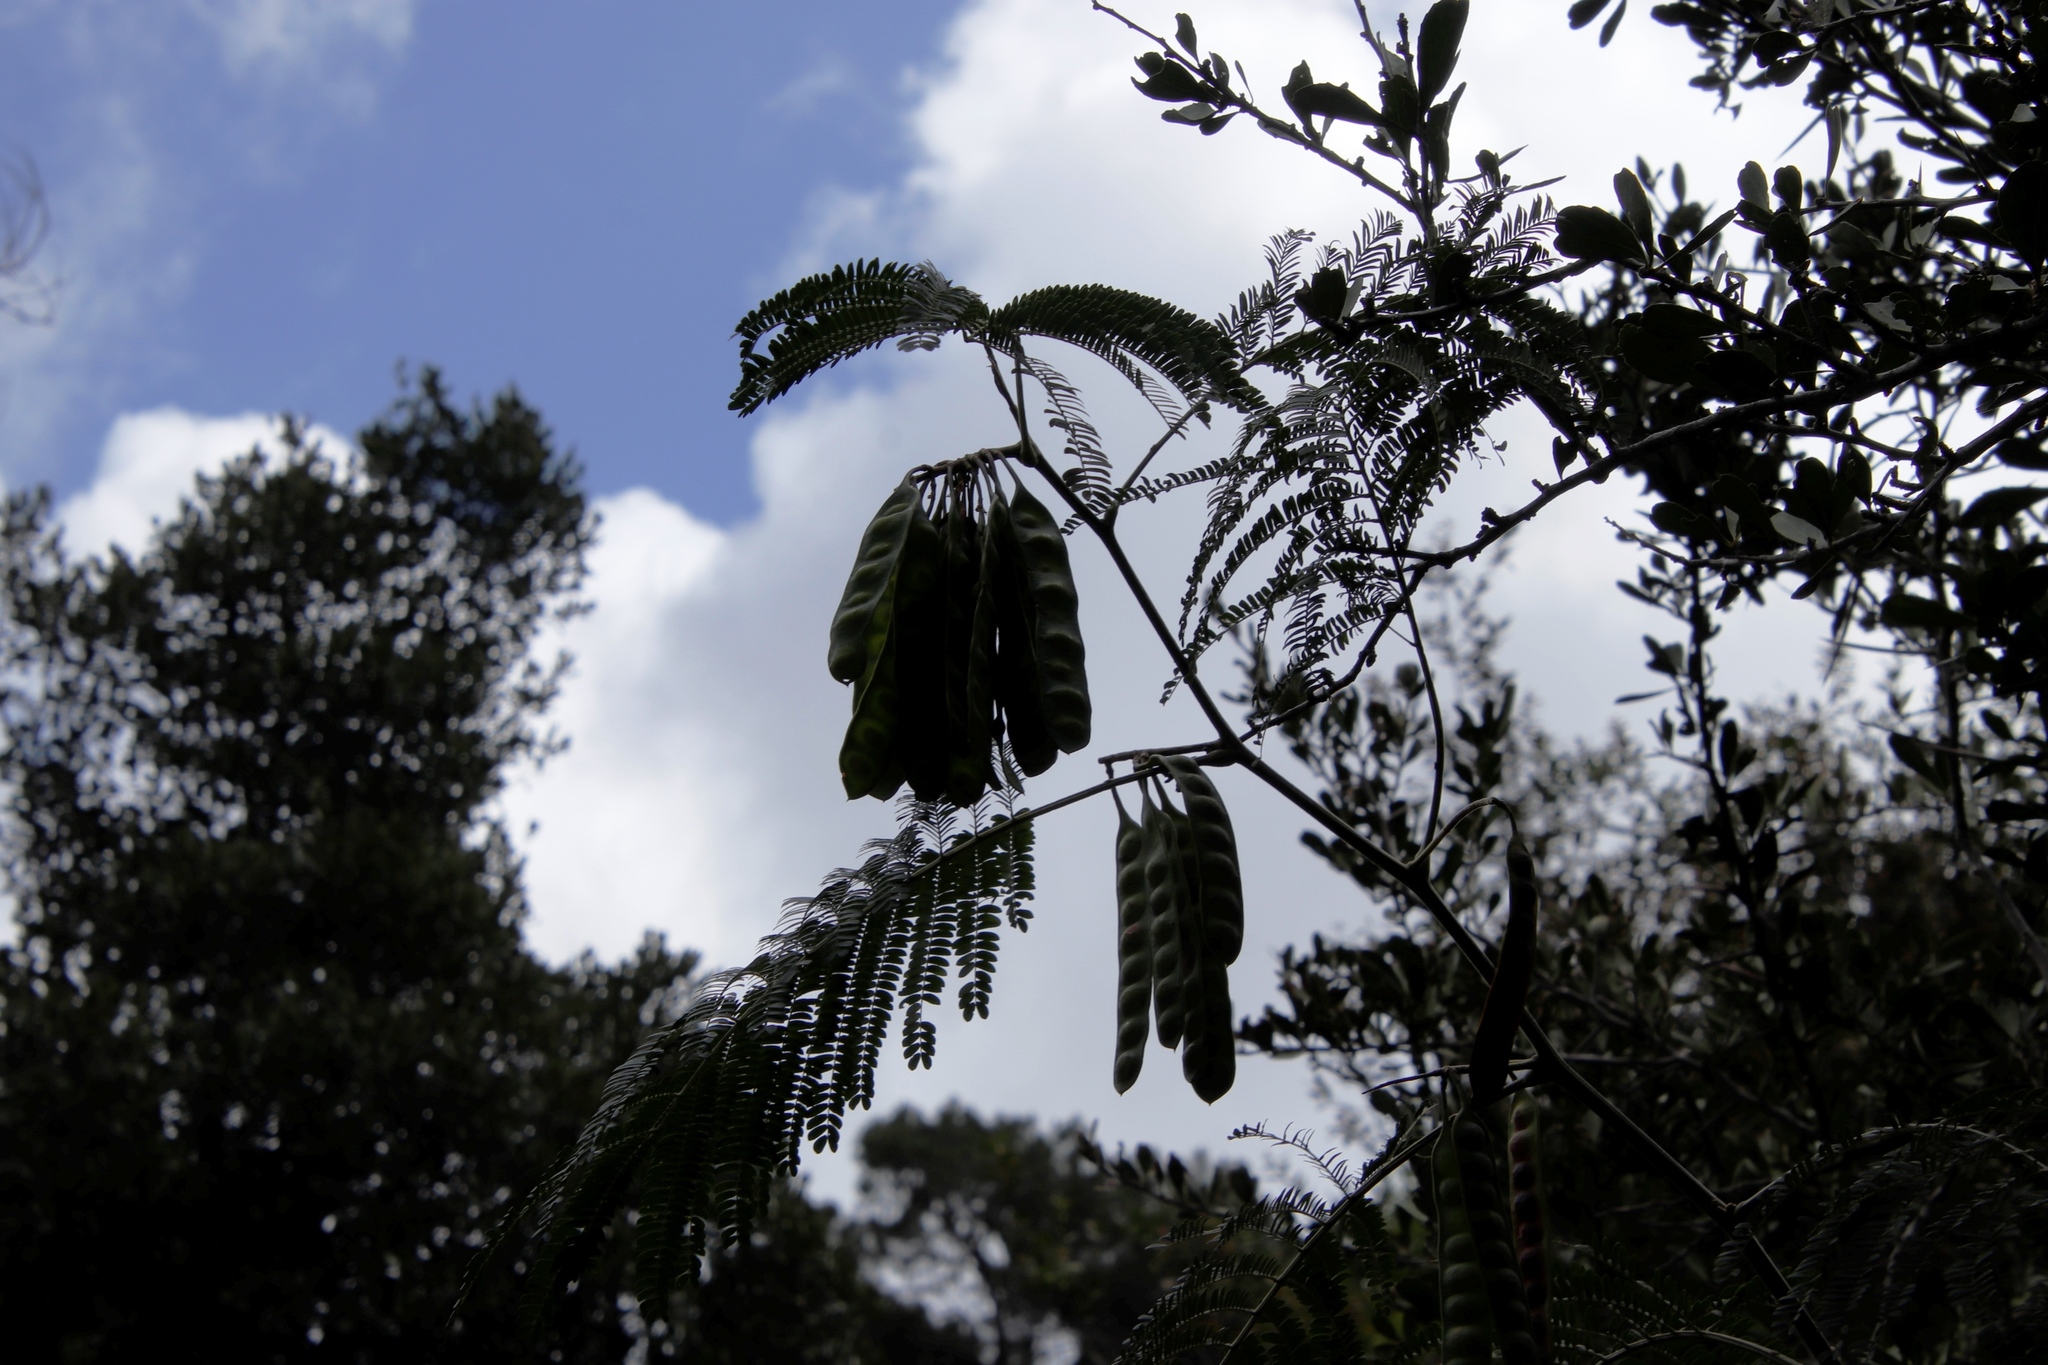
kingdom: Plantae
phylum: Tracheophyta
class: Magnoliopsida
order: Fabales
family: Fabaceae
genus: Paraserianthes
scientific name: Paraserianthes lophantha
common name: Plume albizia
